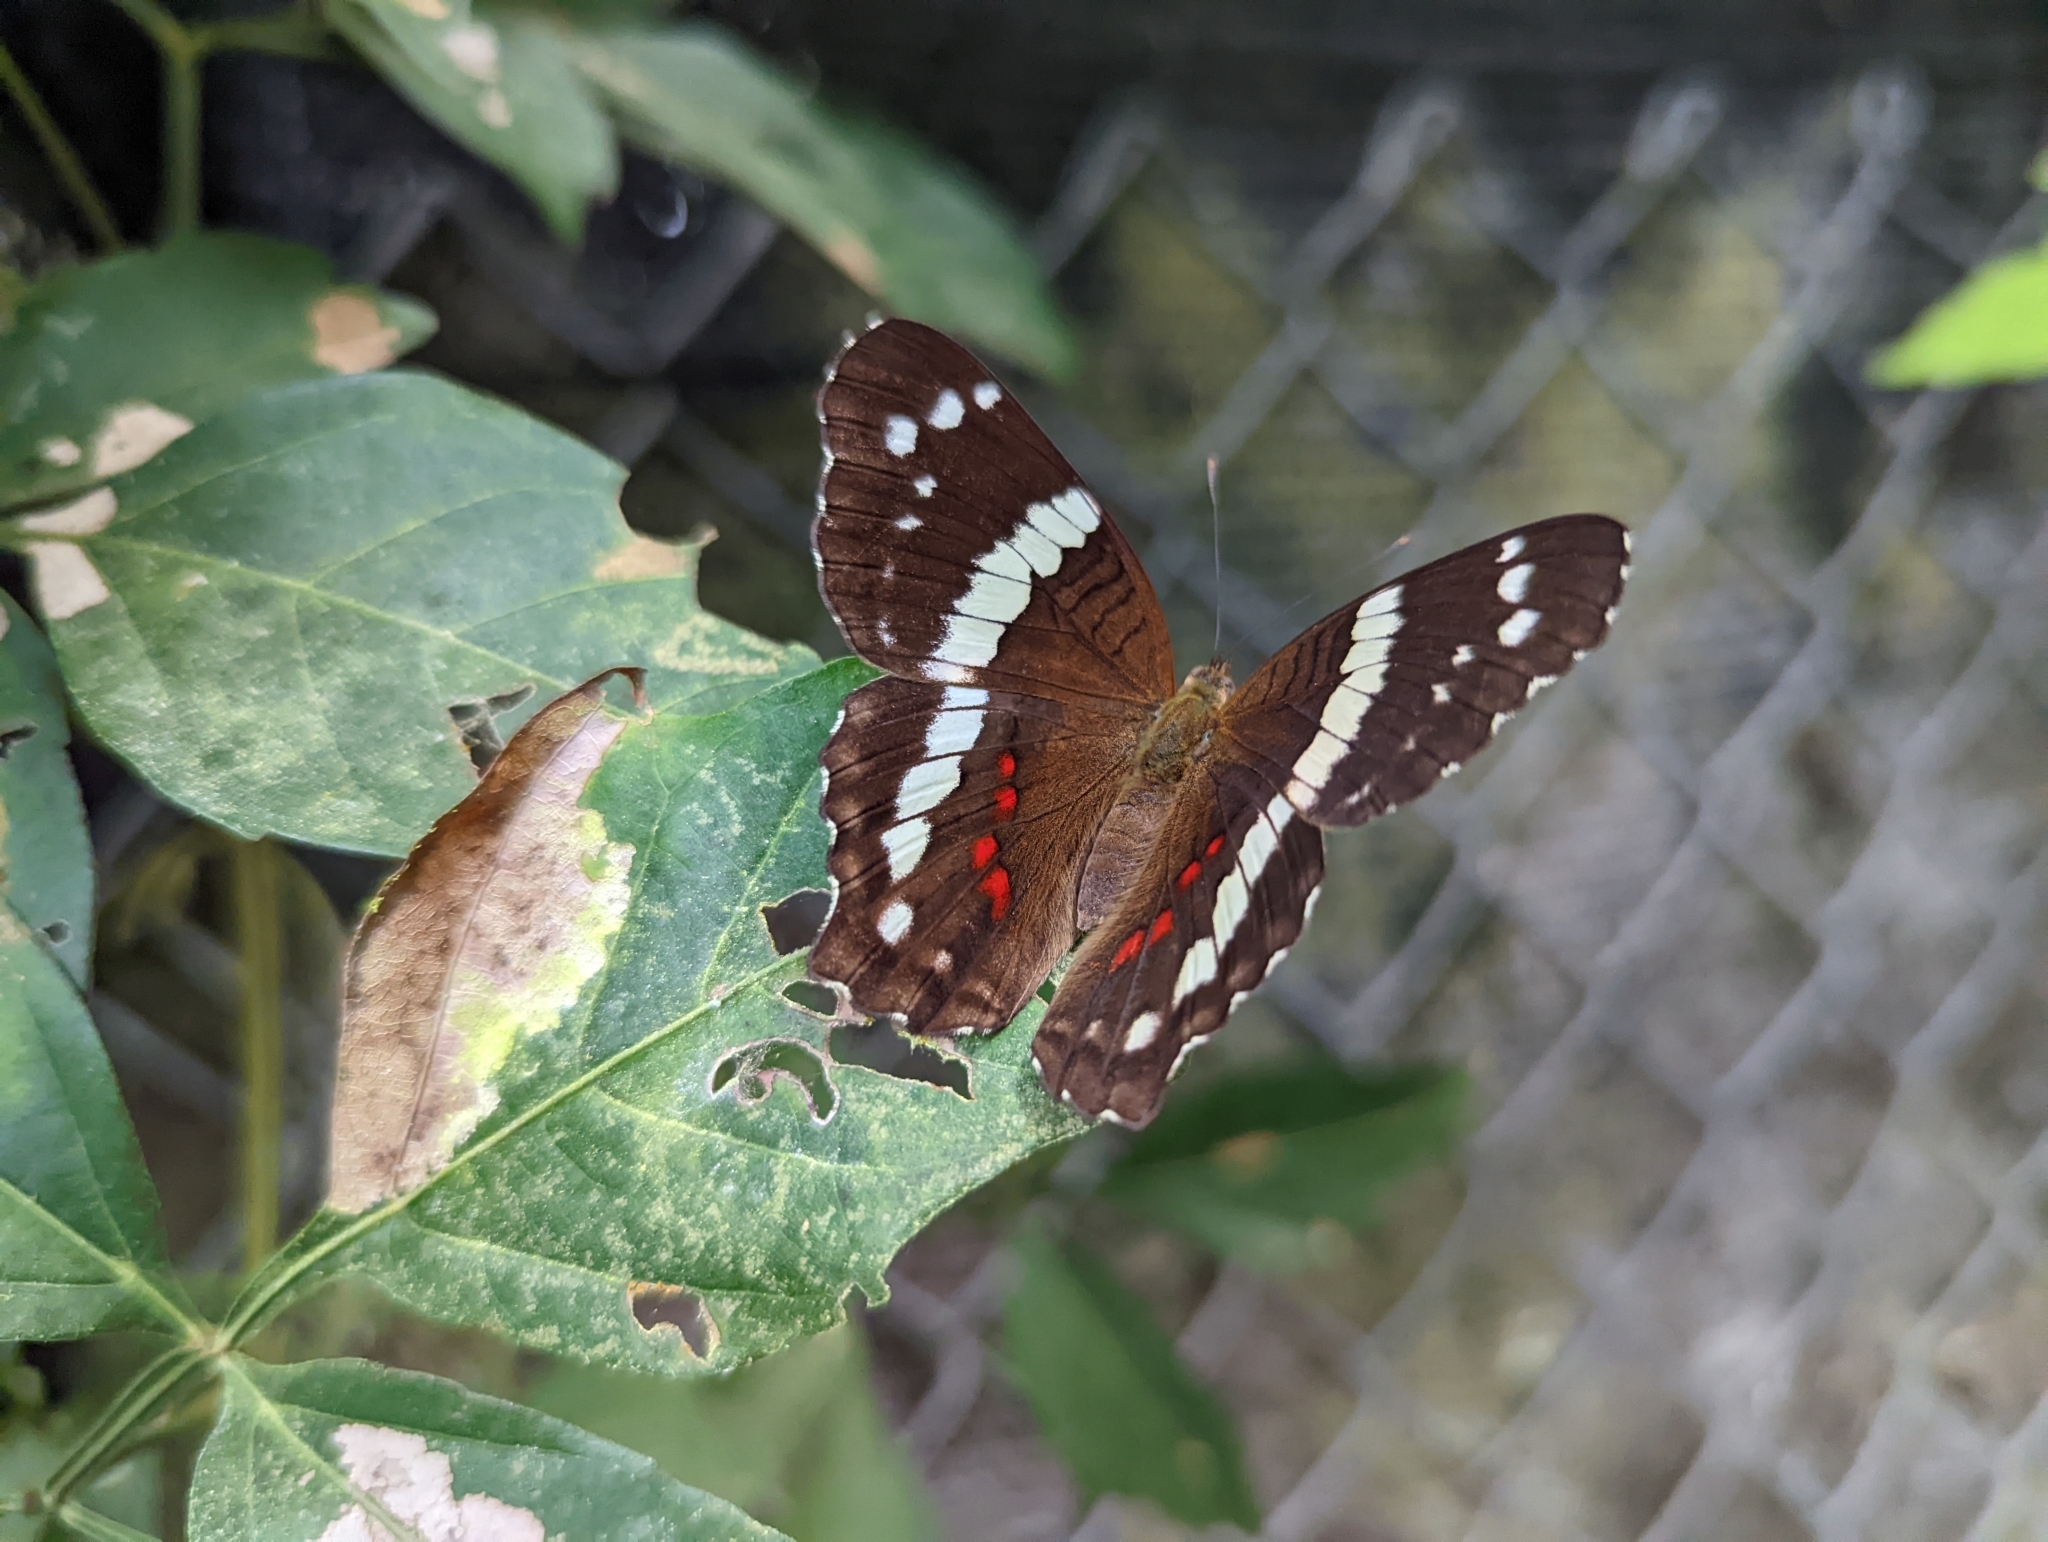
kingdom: Animalia
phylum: Arthropoda
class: Insecta
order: Lepidoptera
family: Nymphalidae
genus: Anartia
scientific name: Anartia fatima
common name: Banded peacock
